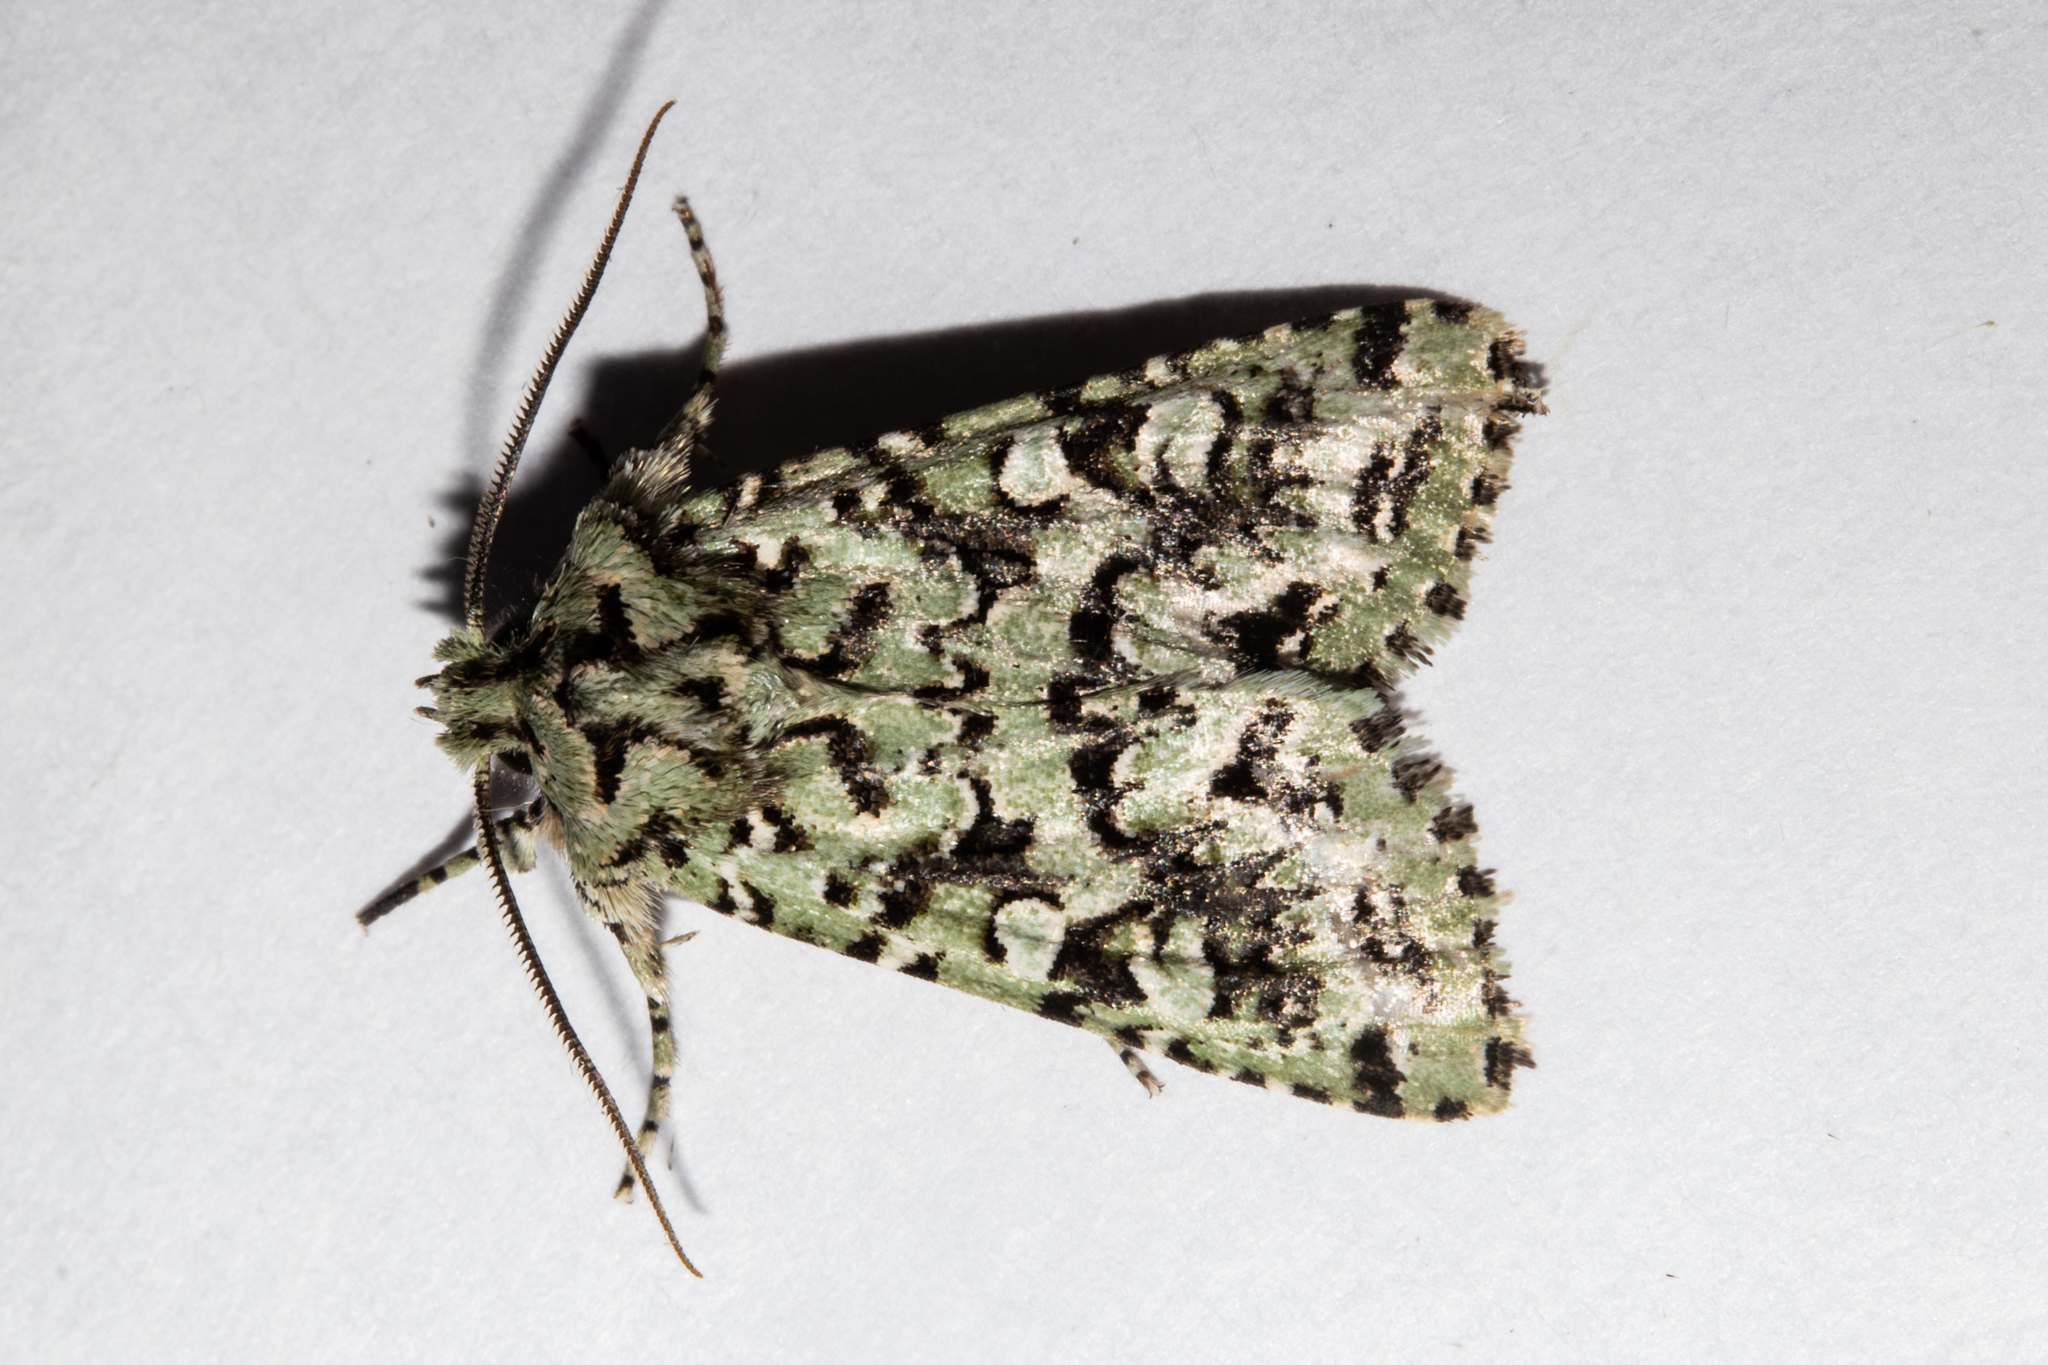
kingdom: Animalia
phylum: Arthropoda
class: Insecta
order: Lepidoptera
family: Noctuidae
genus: Meterana
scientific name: Meterana
